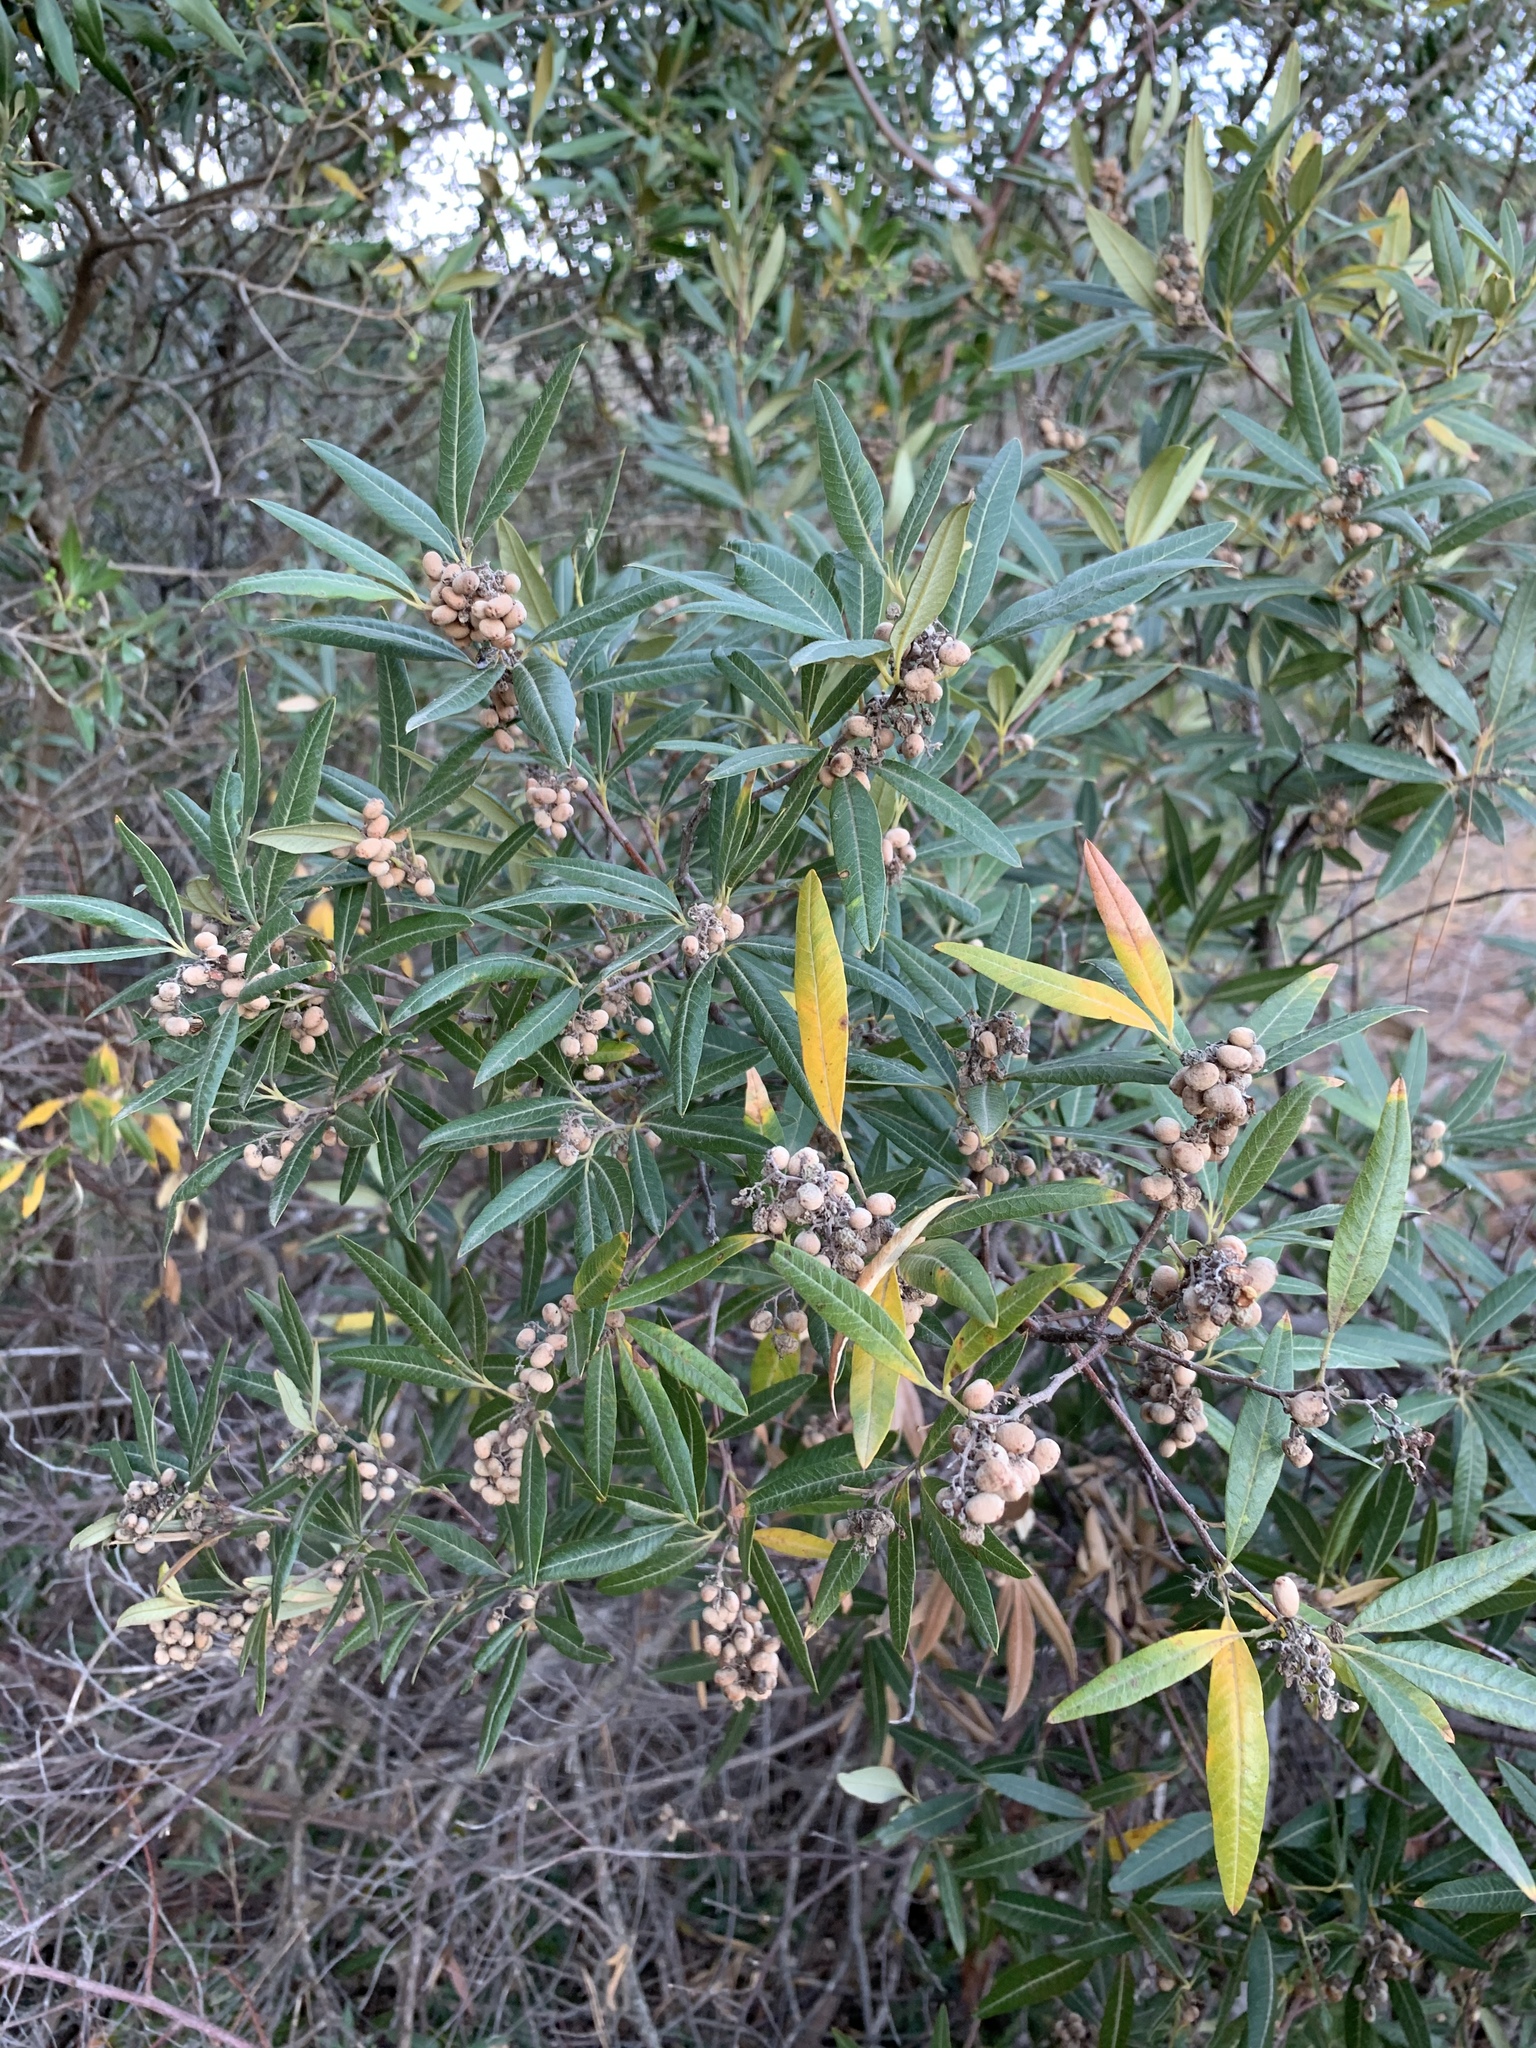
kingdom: Plantae
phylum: Tracheophyta
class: Magnoliopsida
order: Sapindales
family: Anacardiaceae
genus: Searsia
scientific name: Searsia angustifolia
